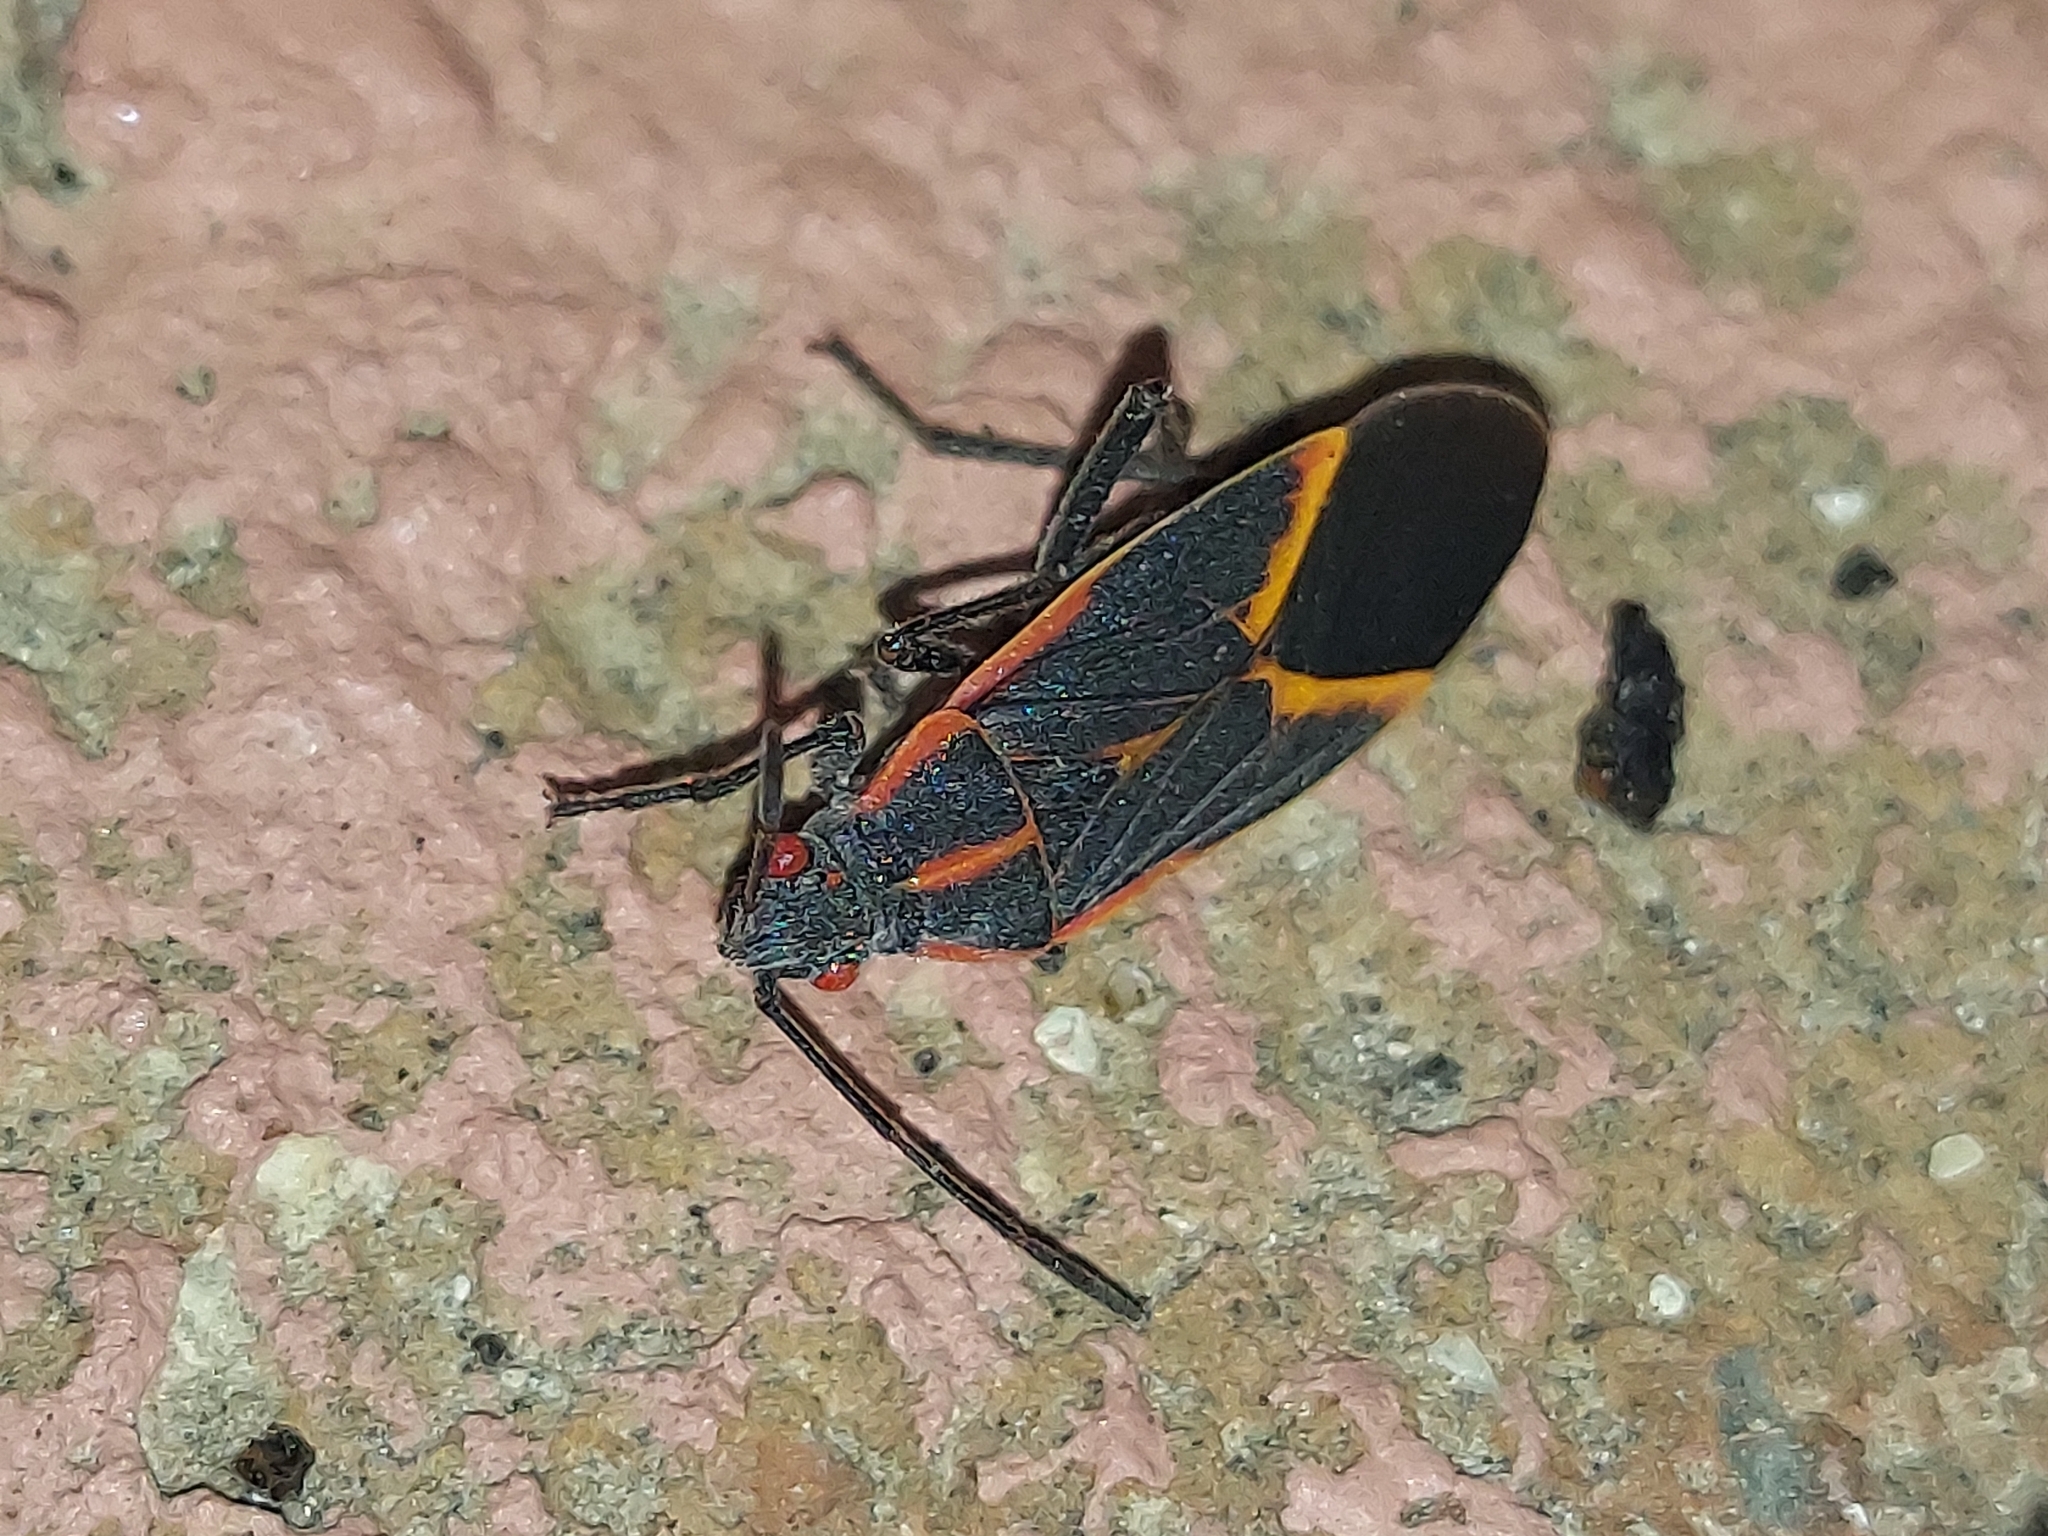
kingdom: Animalia
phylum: Arthropoda
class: Insecta
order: Hemiptera
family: Rhopalidae
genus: Boisea
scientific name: Boisea trivittata
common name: Boxelder bug
